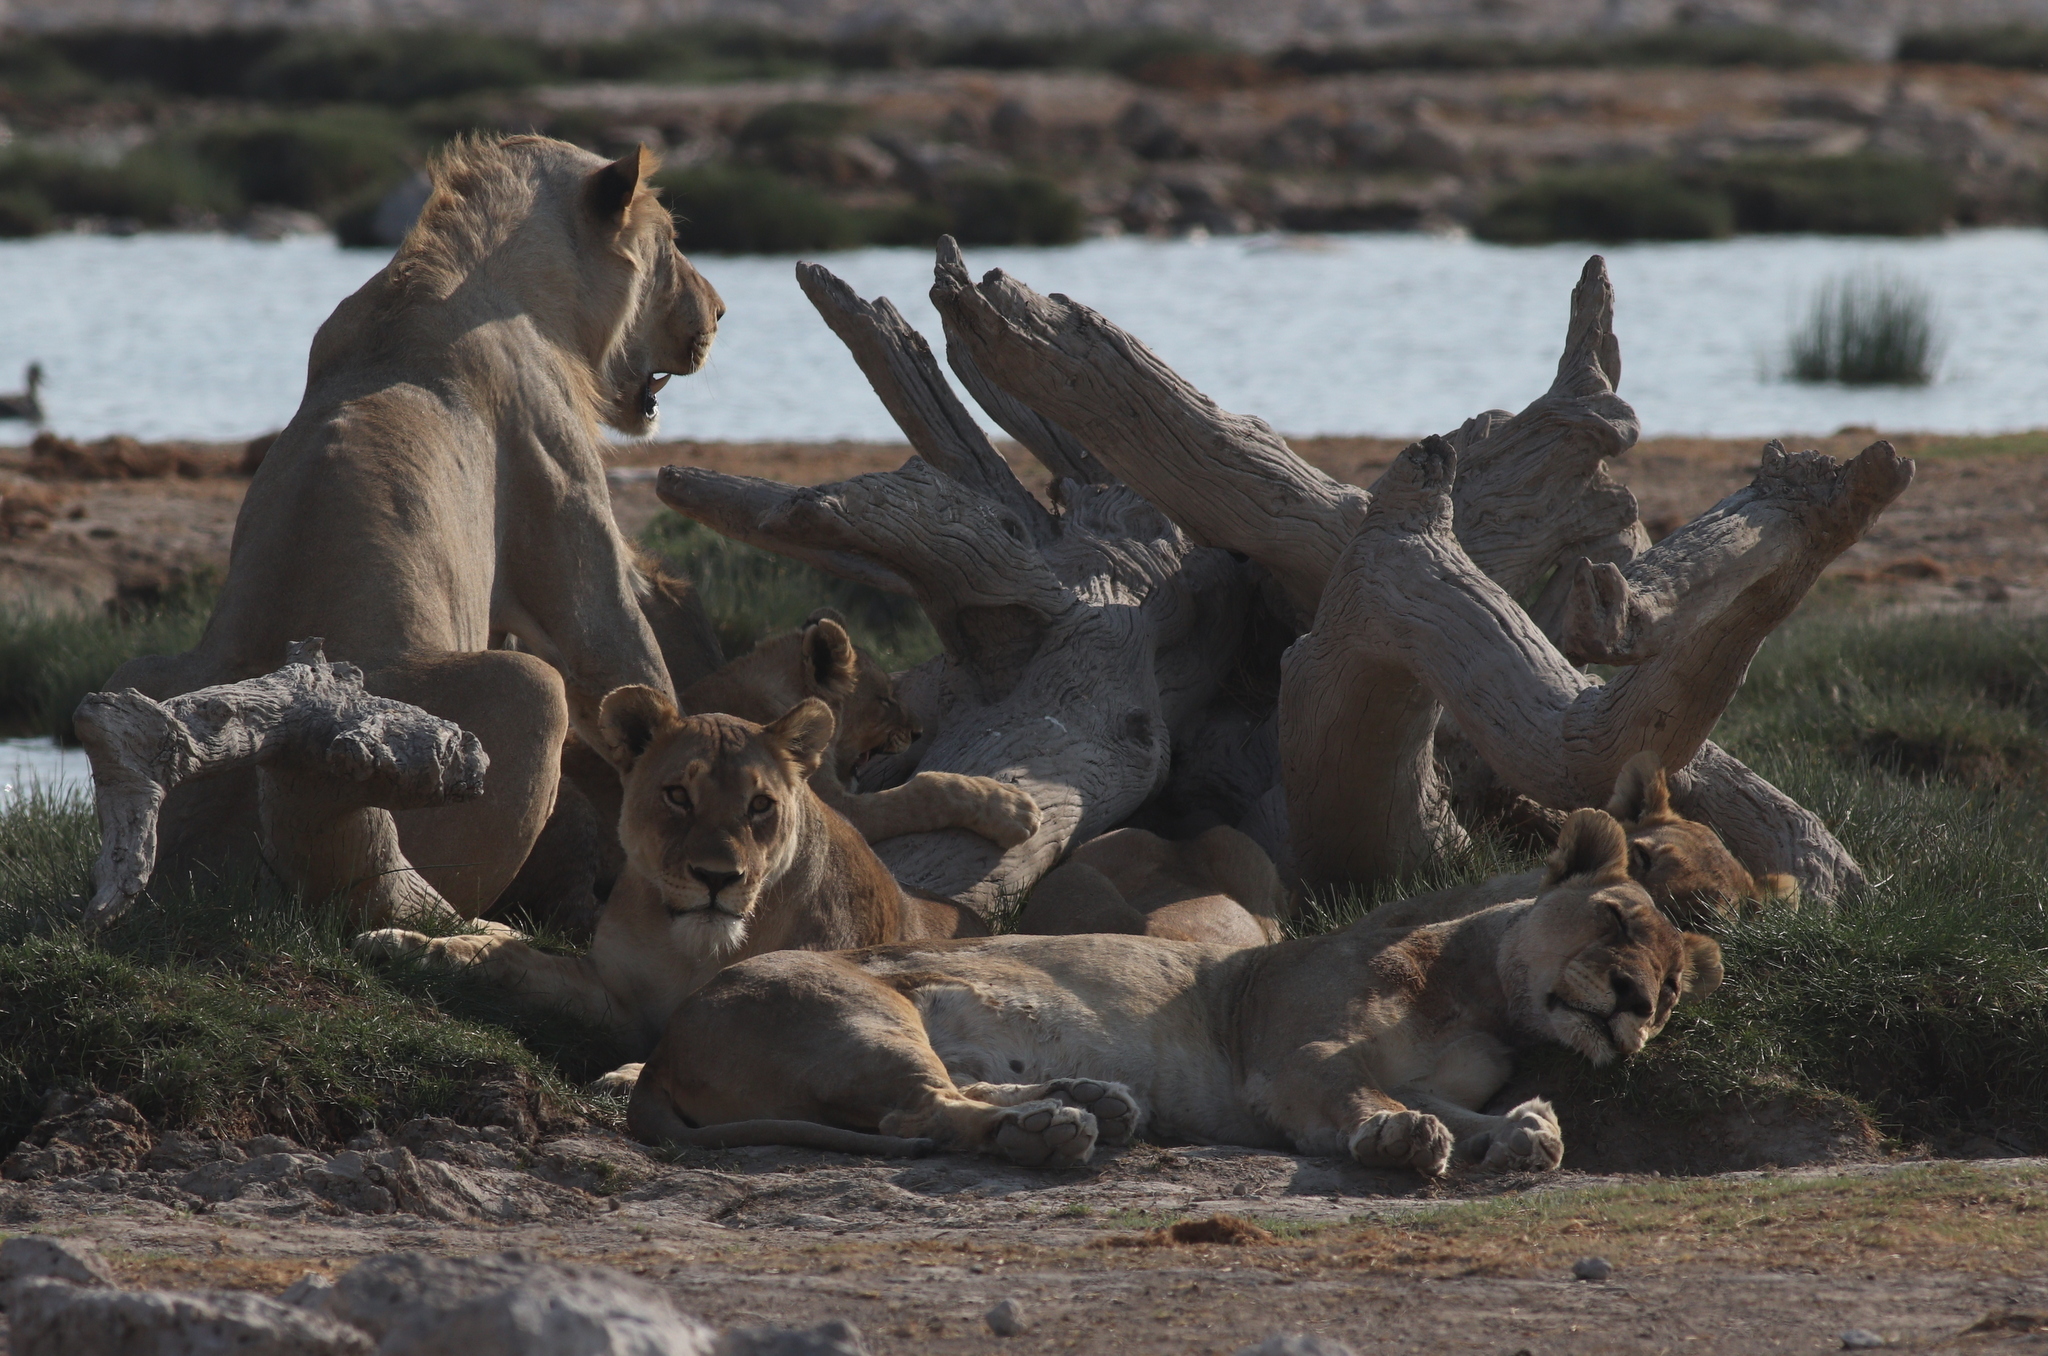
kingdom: Animalia
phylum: Chordata
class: Mammalia
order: Carnivora
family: Felidae
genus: Panthera
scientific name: Panthera leo
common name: Lion
